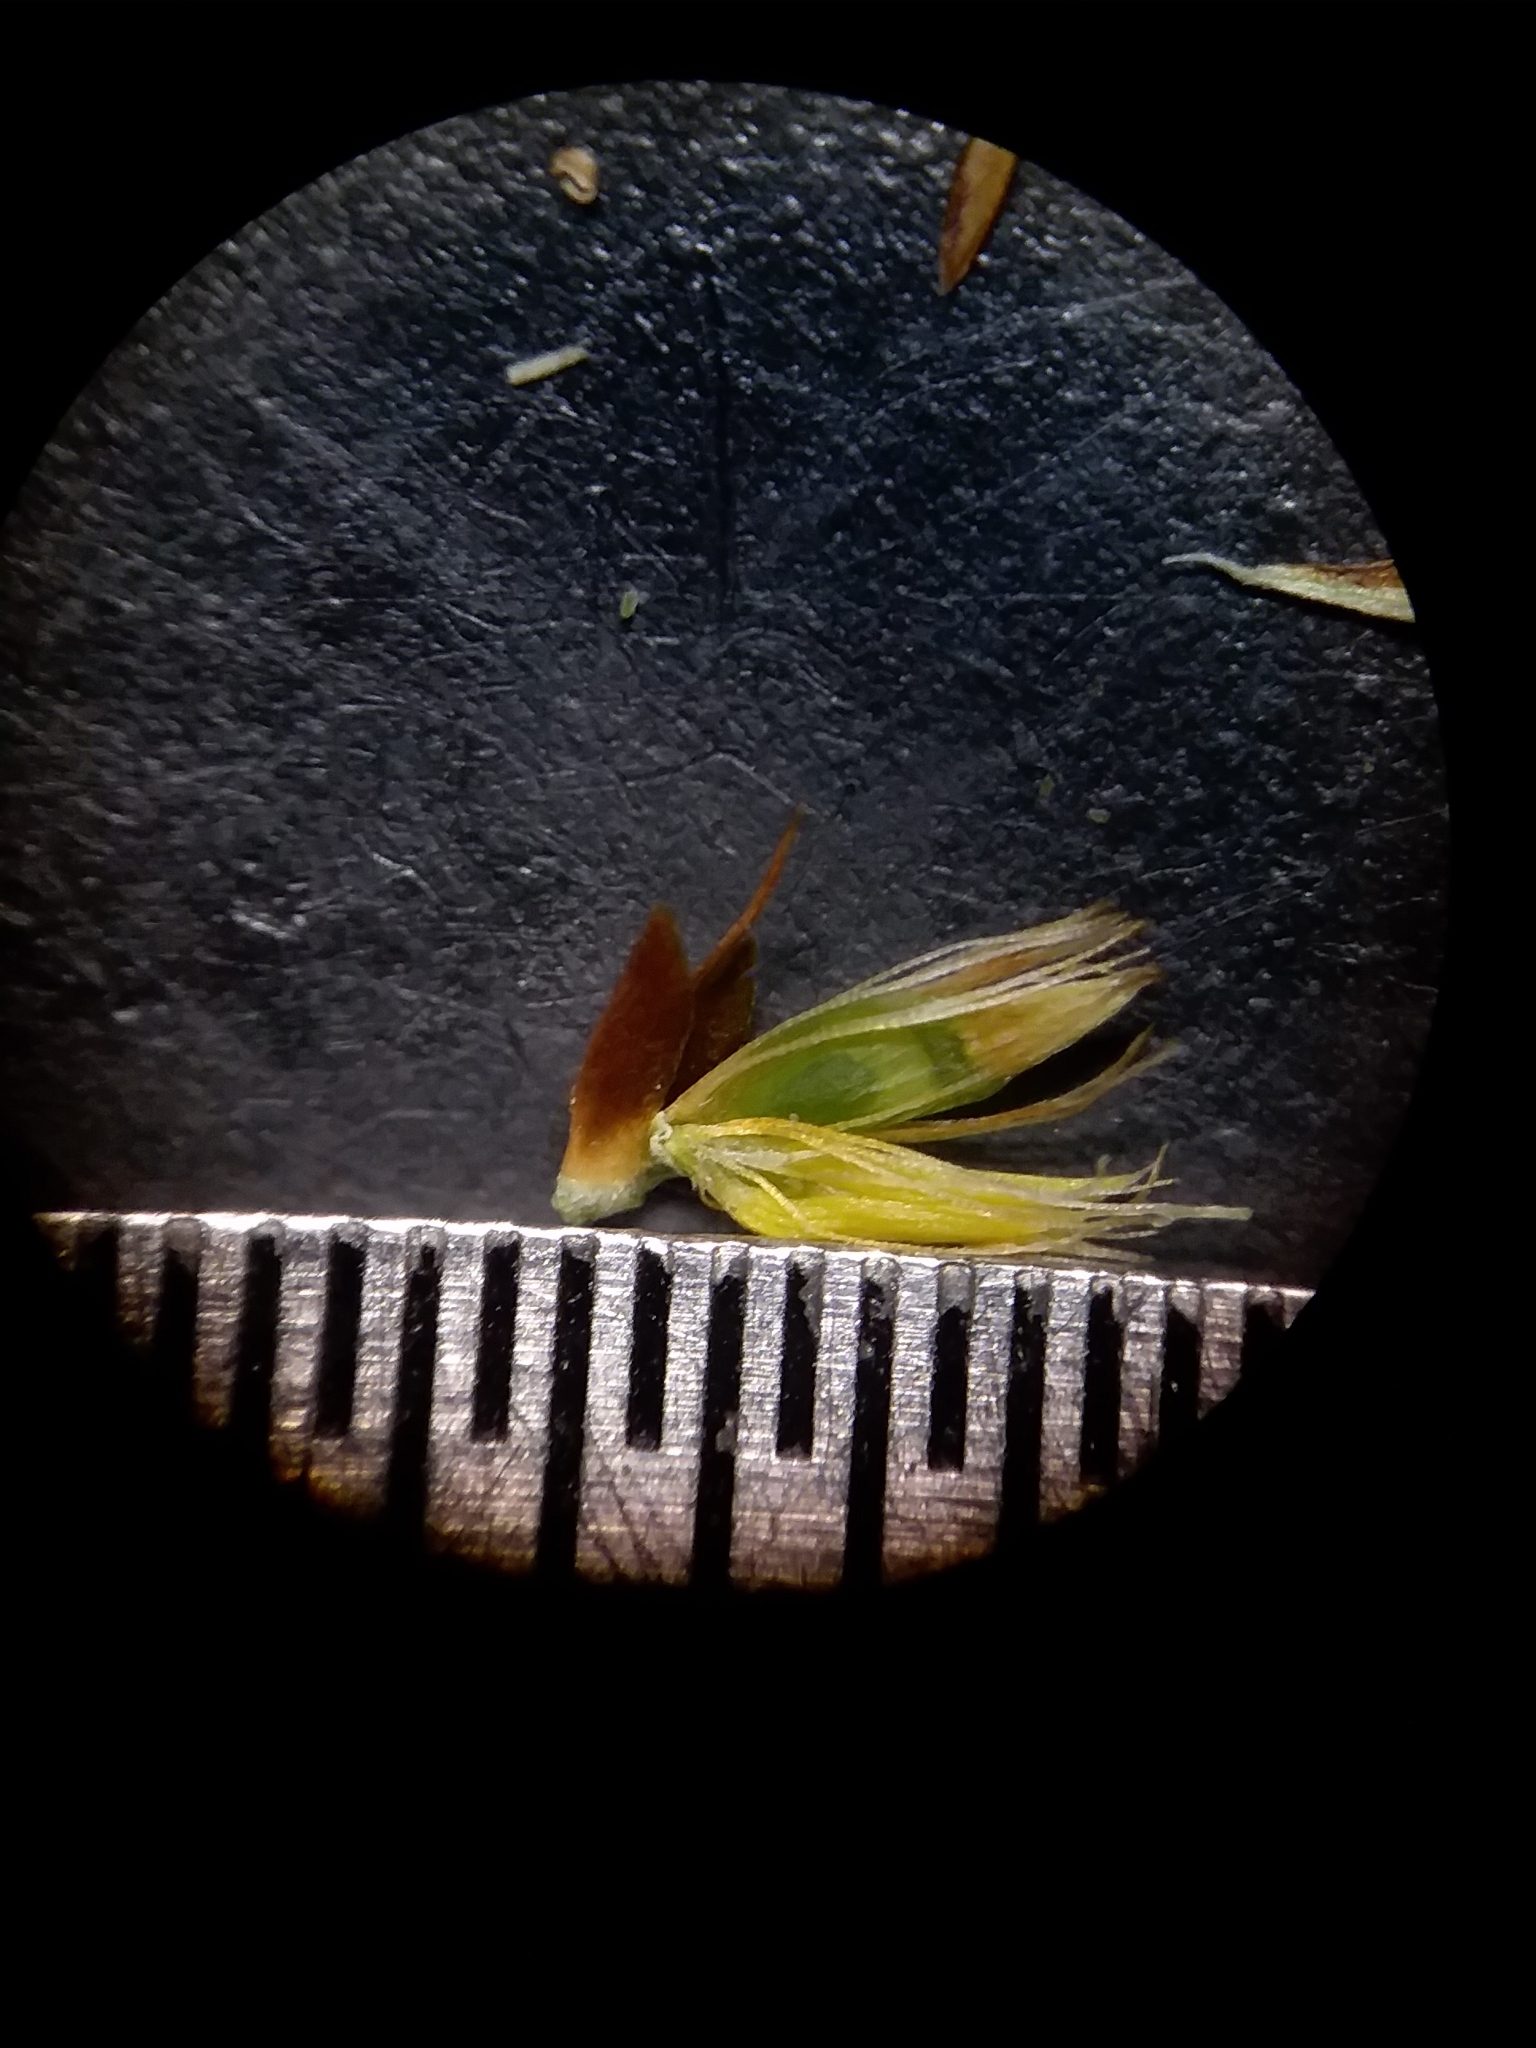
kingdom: Plantae
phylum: Tracheophyta
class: Liliopsida
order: Poales
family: Cyperaceae
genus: Rhynchospora
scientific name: Rhynchospora baldwinii
